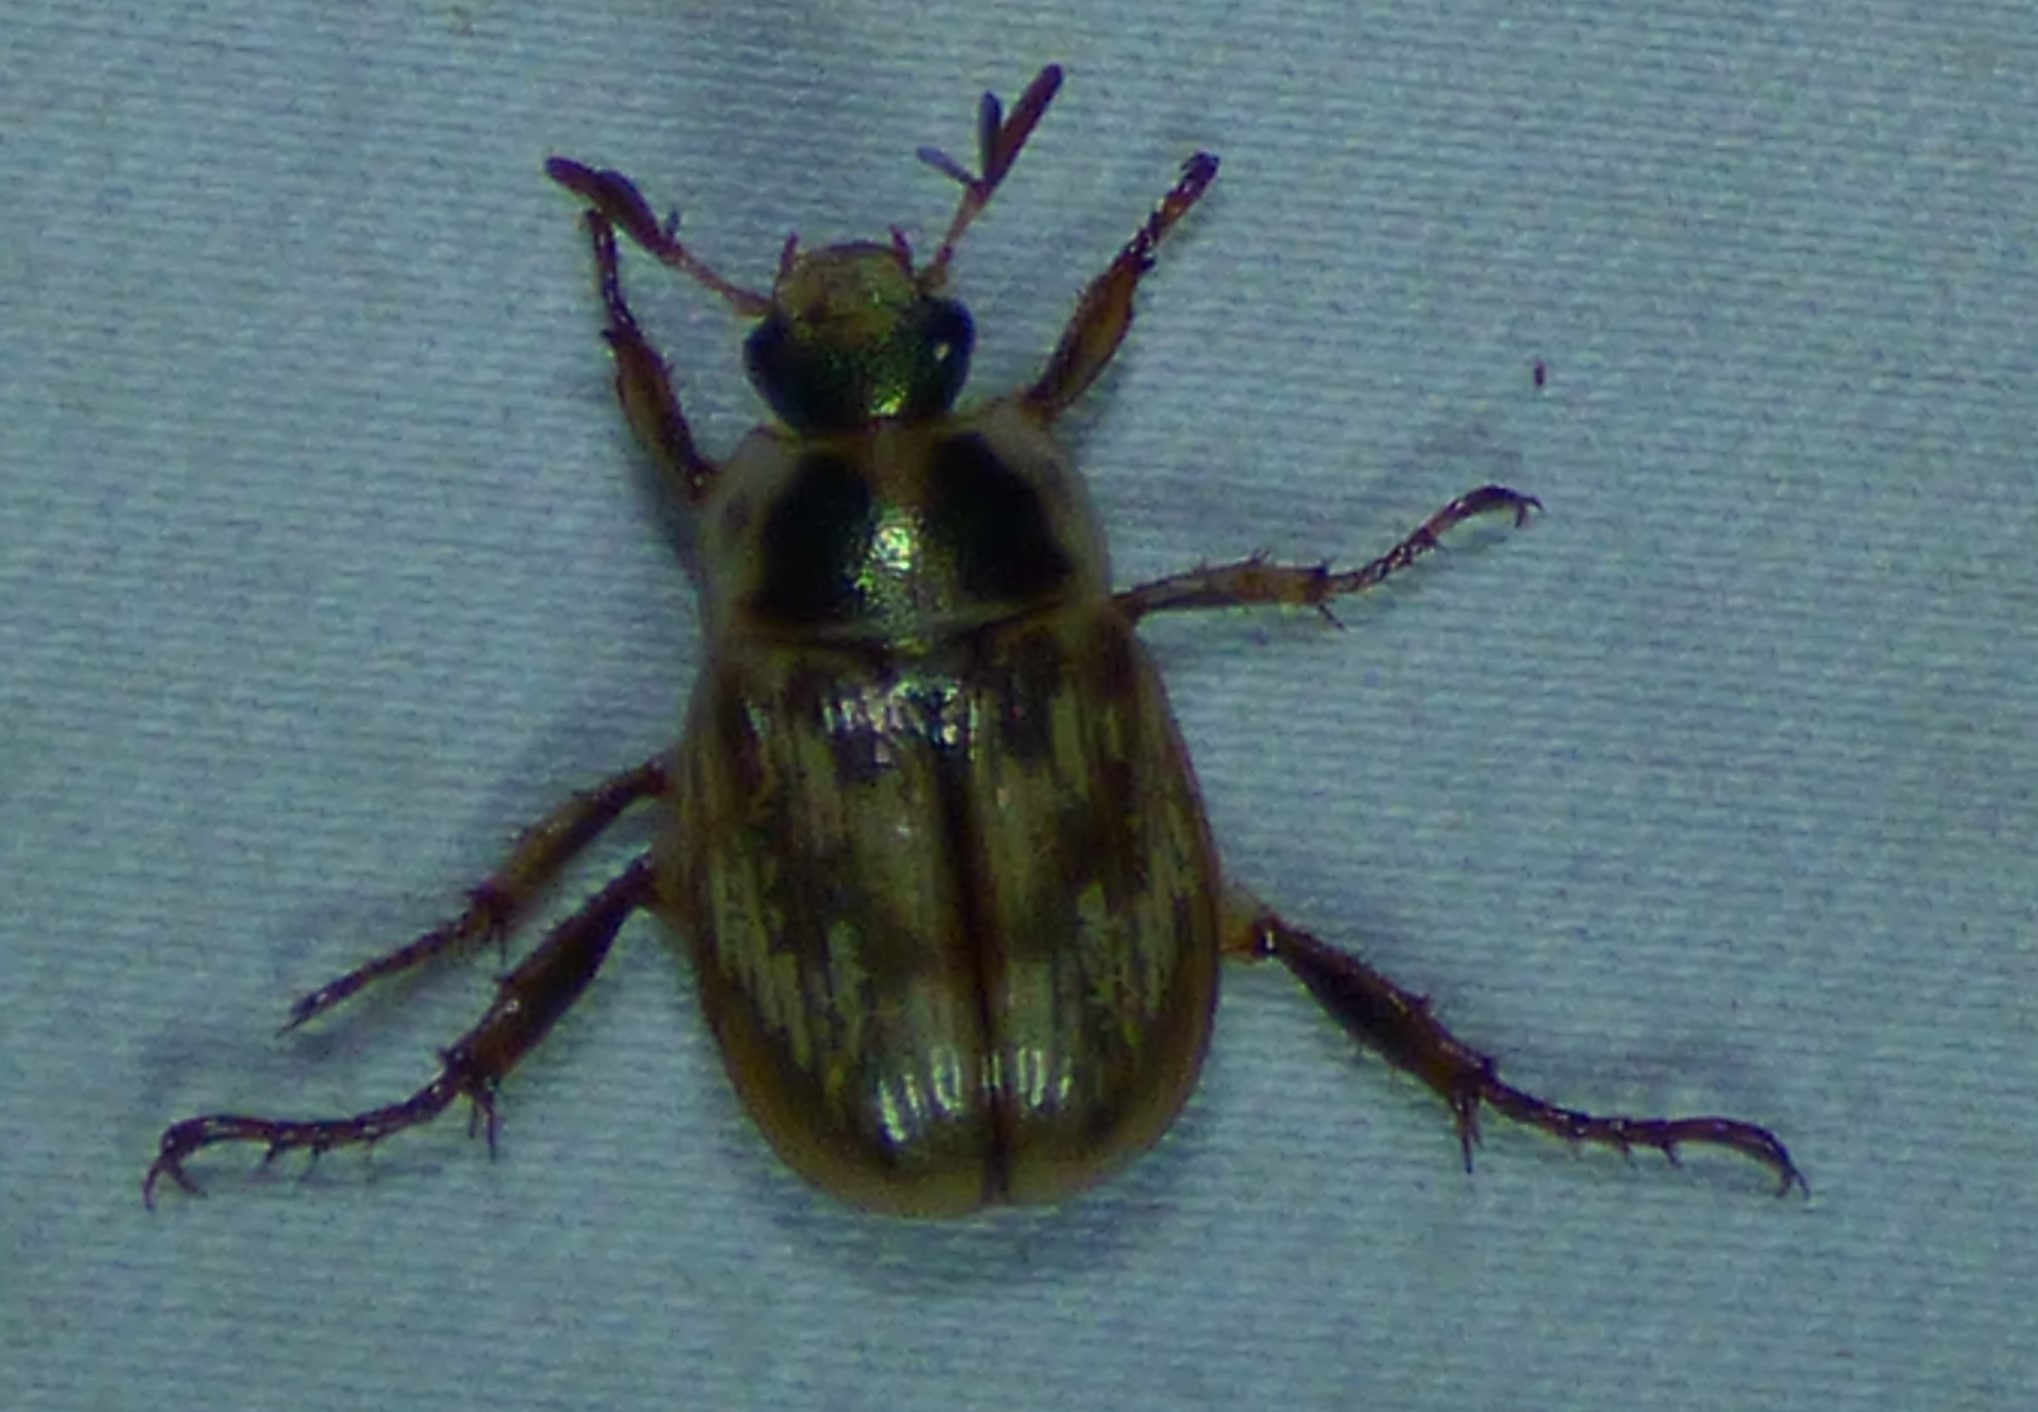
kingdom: Animalia
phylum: Arthropoda
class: Insecta
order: Coleoptera
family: Scarabaeidae
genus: Exomala
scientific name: Exomala orientalis
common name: Oriental beetle
